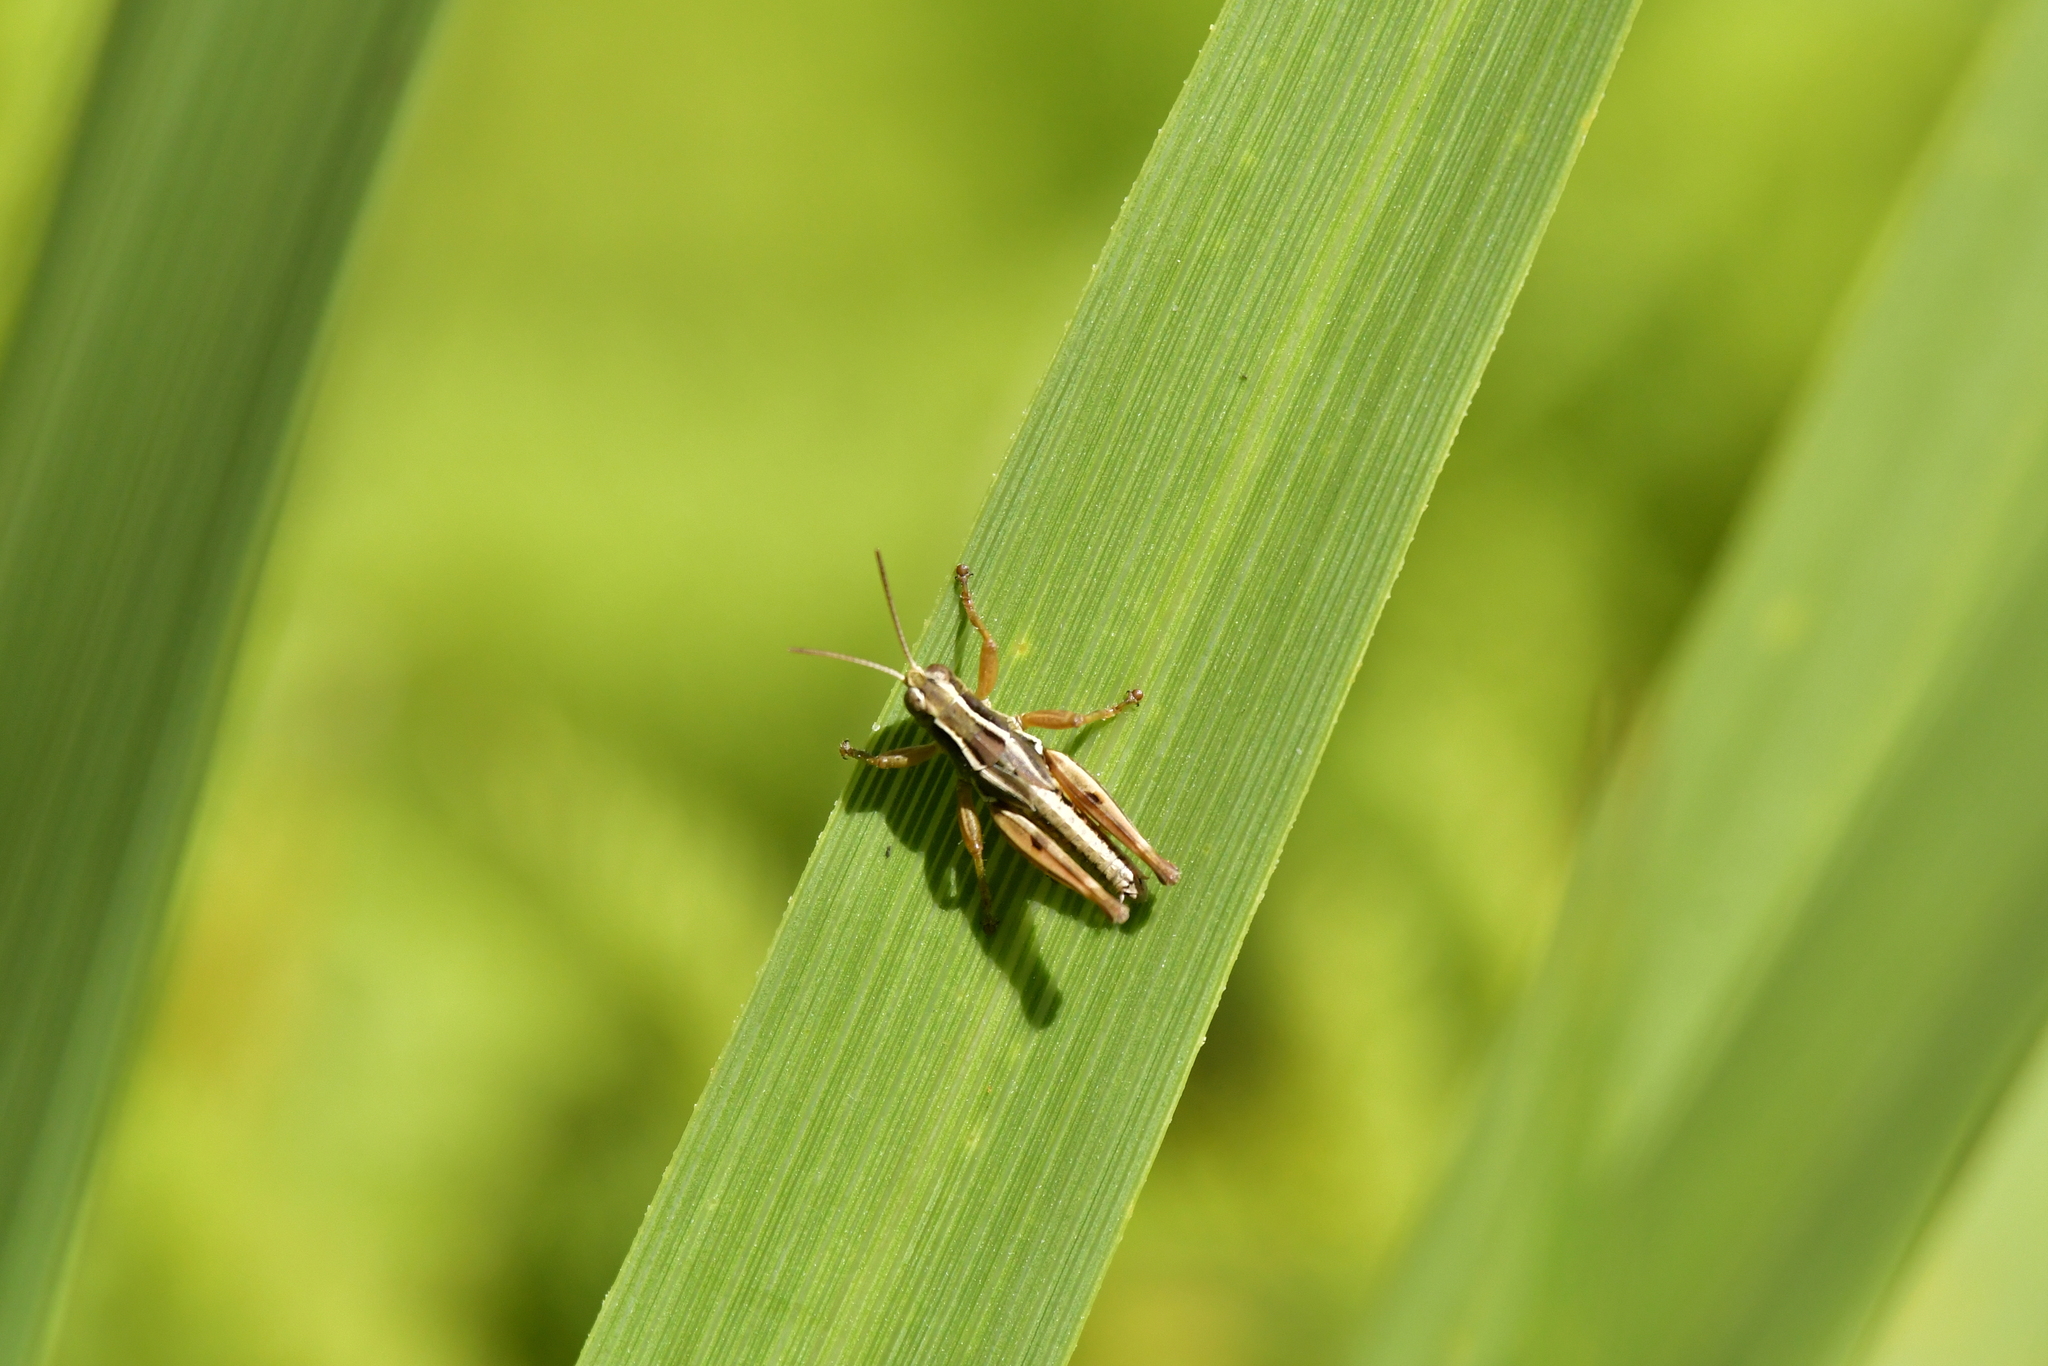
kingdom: Animalia
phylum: Arthropoda
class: Insecta
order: Orthoptera
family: Acrididae
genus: Phaulacridium
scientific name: Phaulacridium marginale
